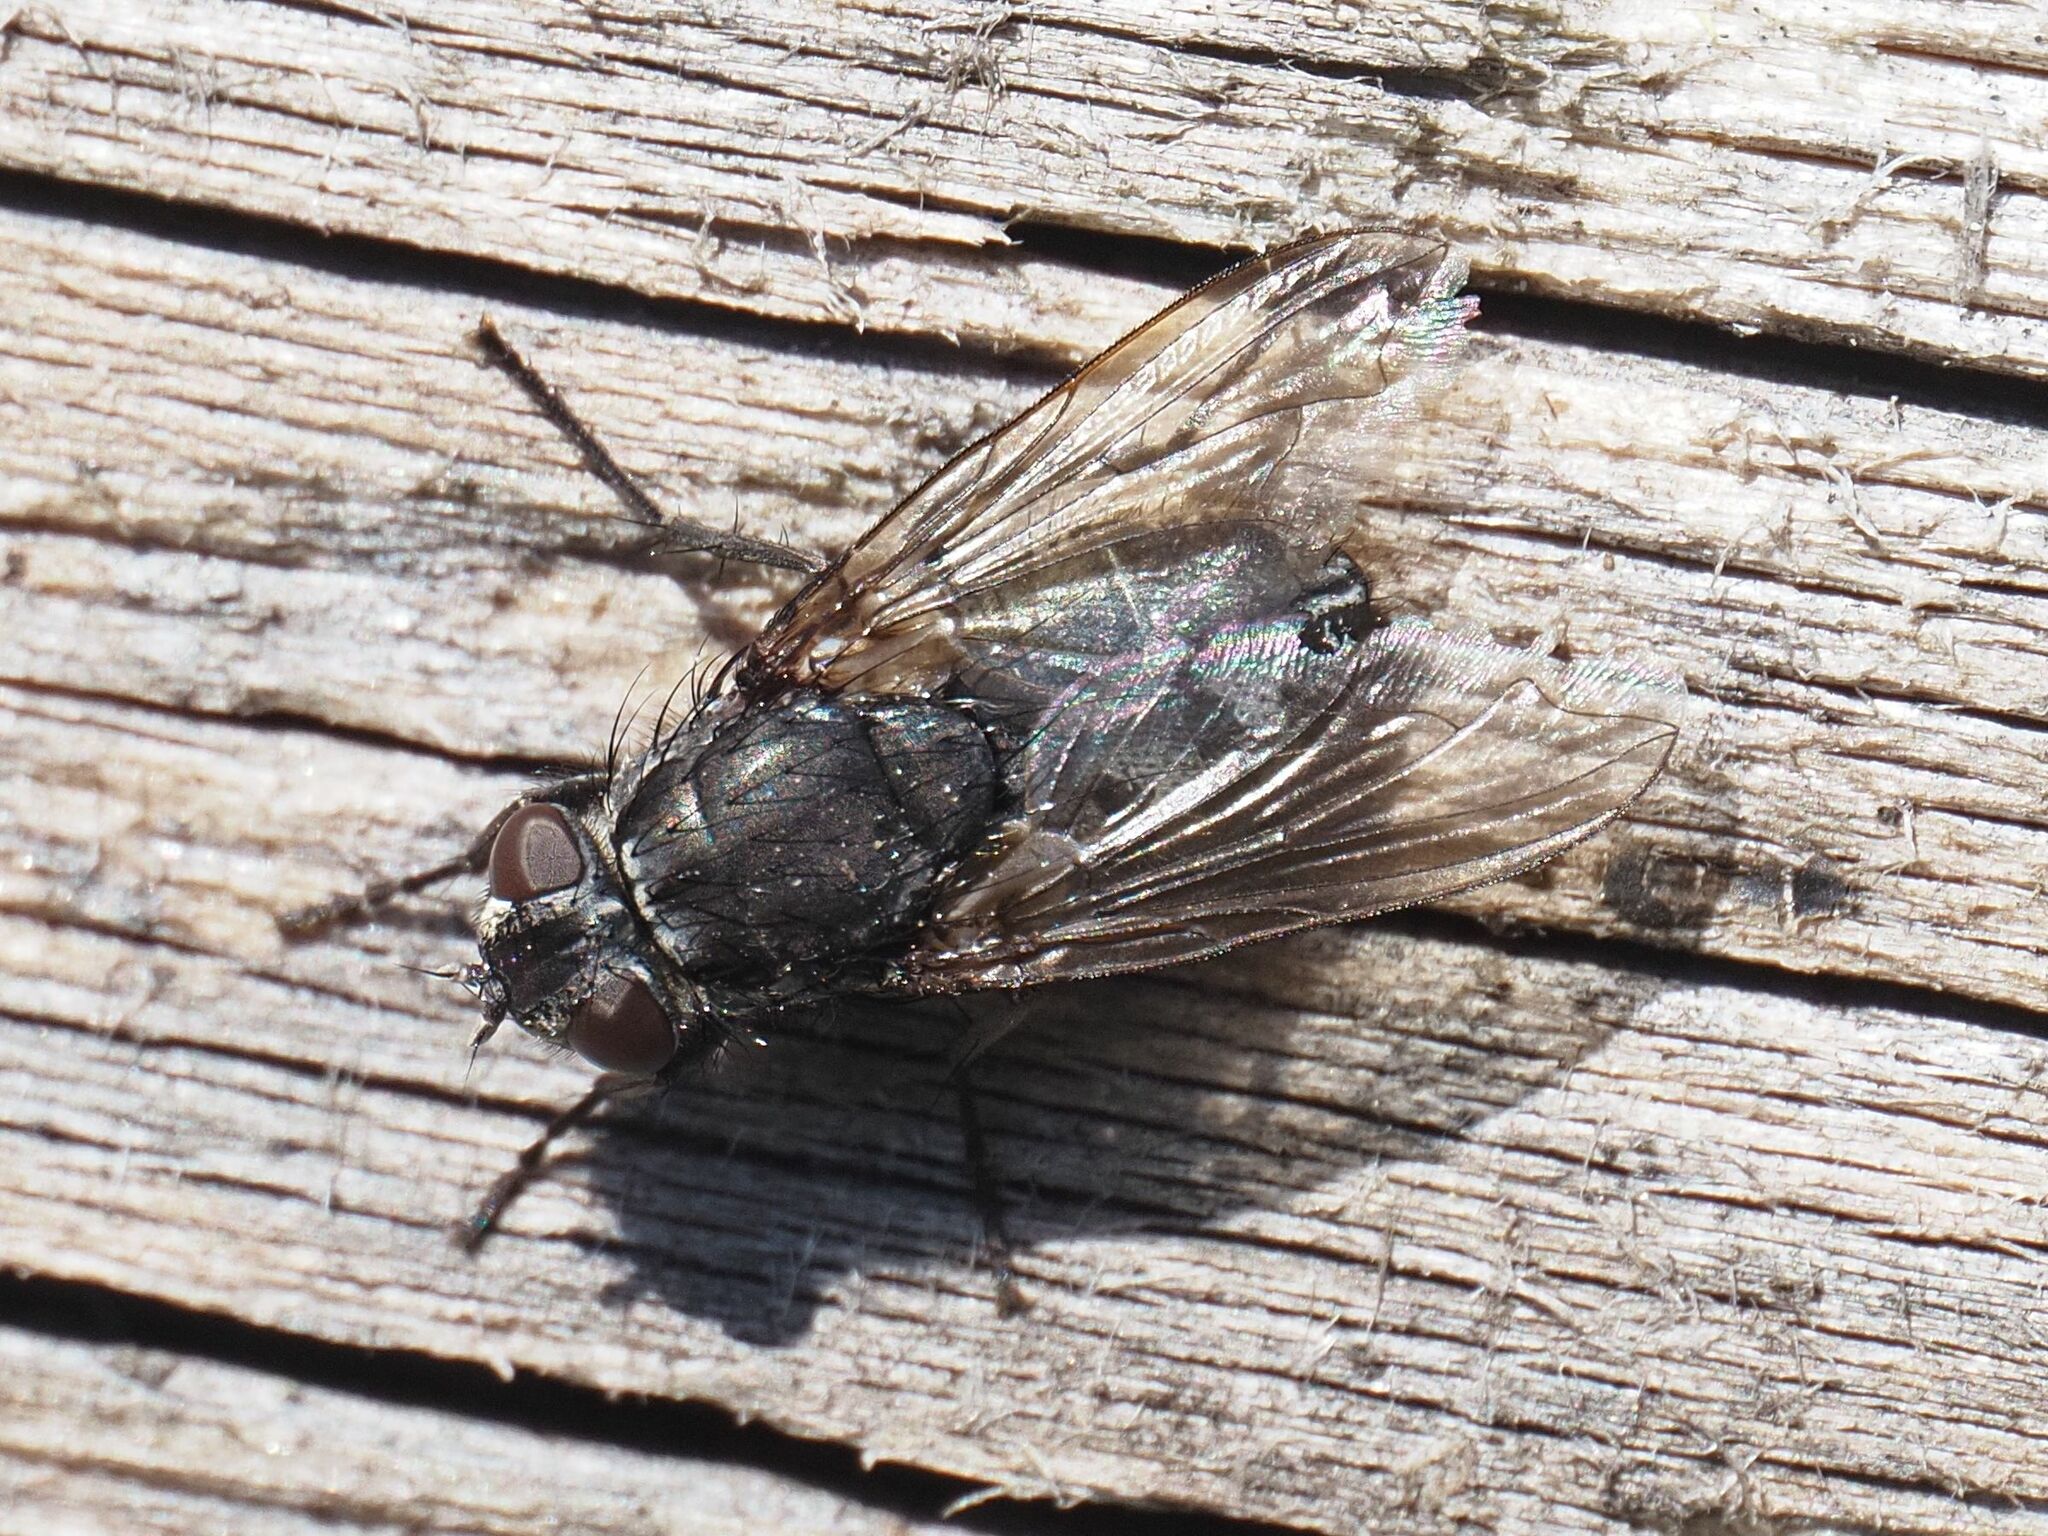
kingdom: Animalia
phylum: Arthropoda
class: Insecta
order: Diptera
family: Polleniidae
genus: Pollenia
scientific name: Pollenia vagabunda
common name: Vagabund cluster fly
